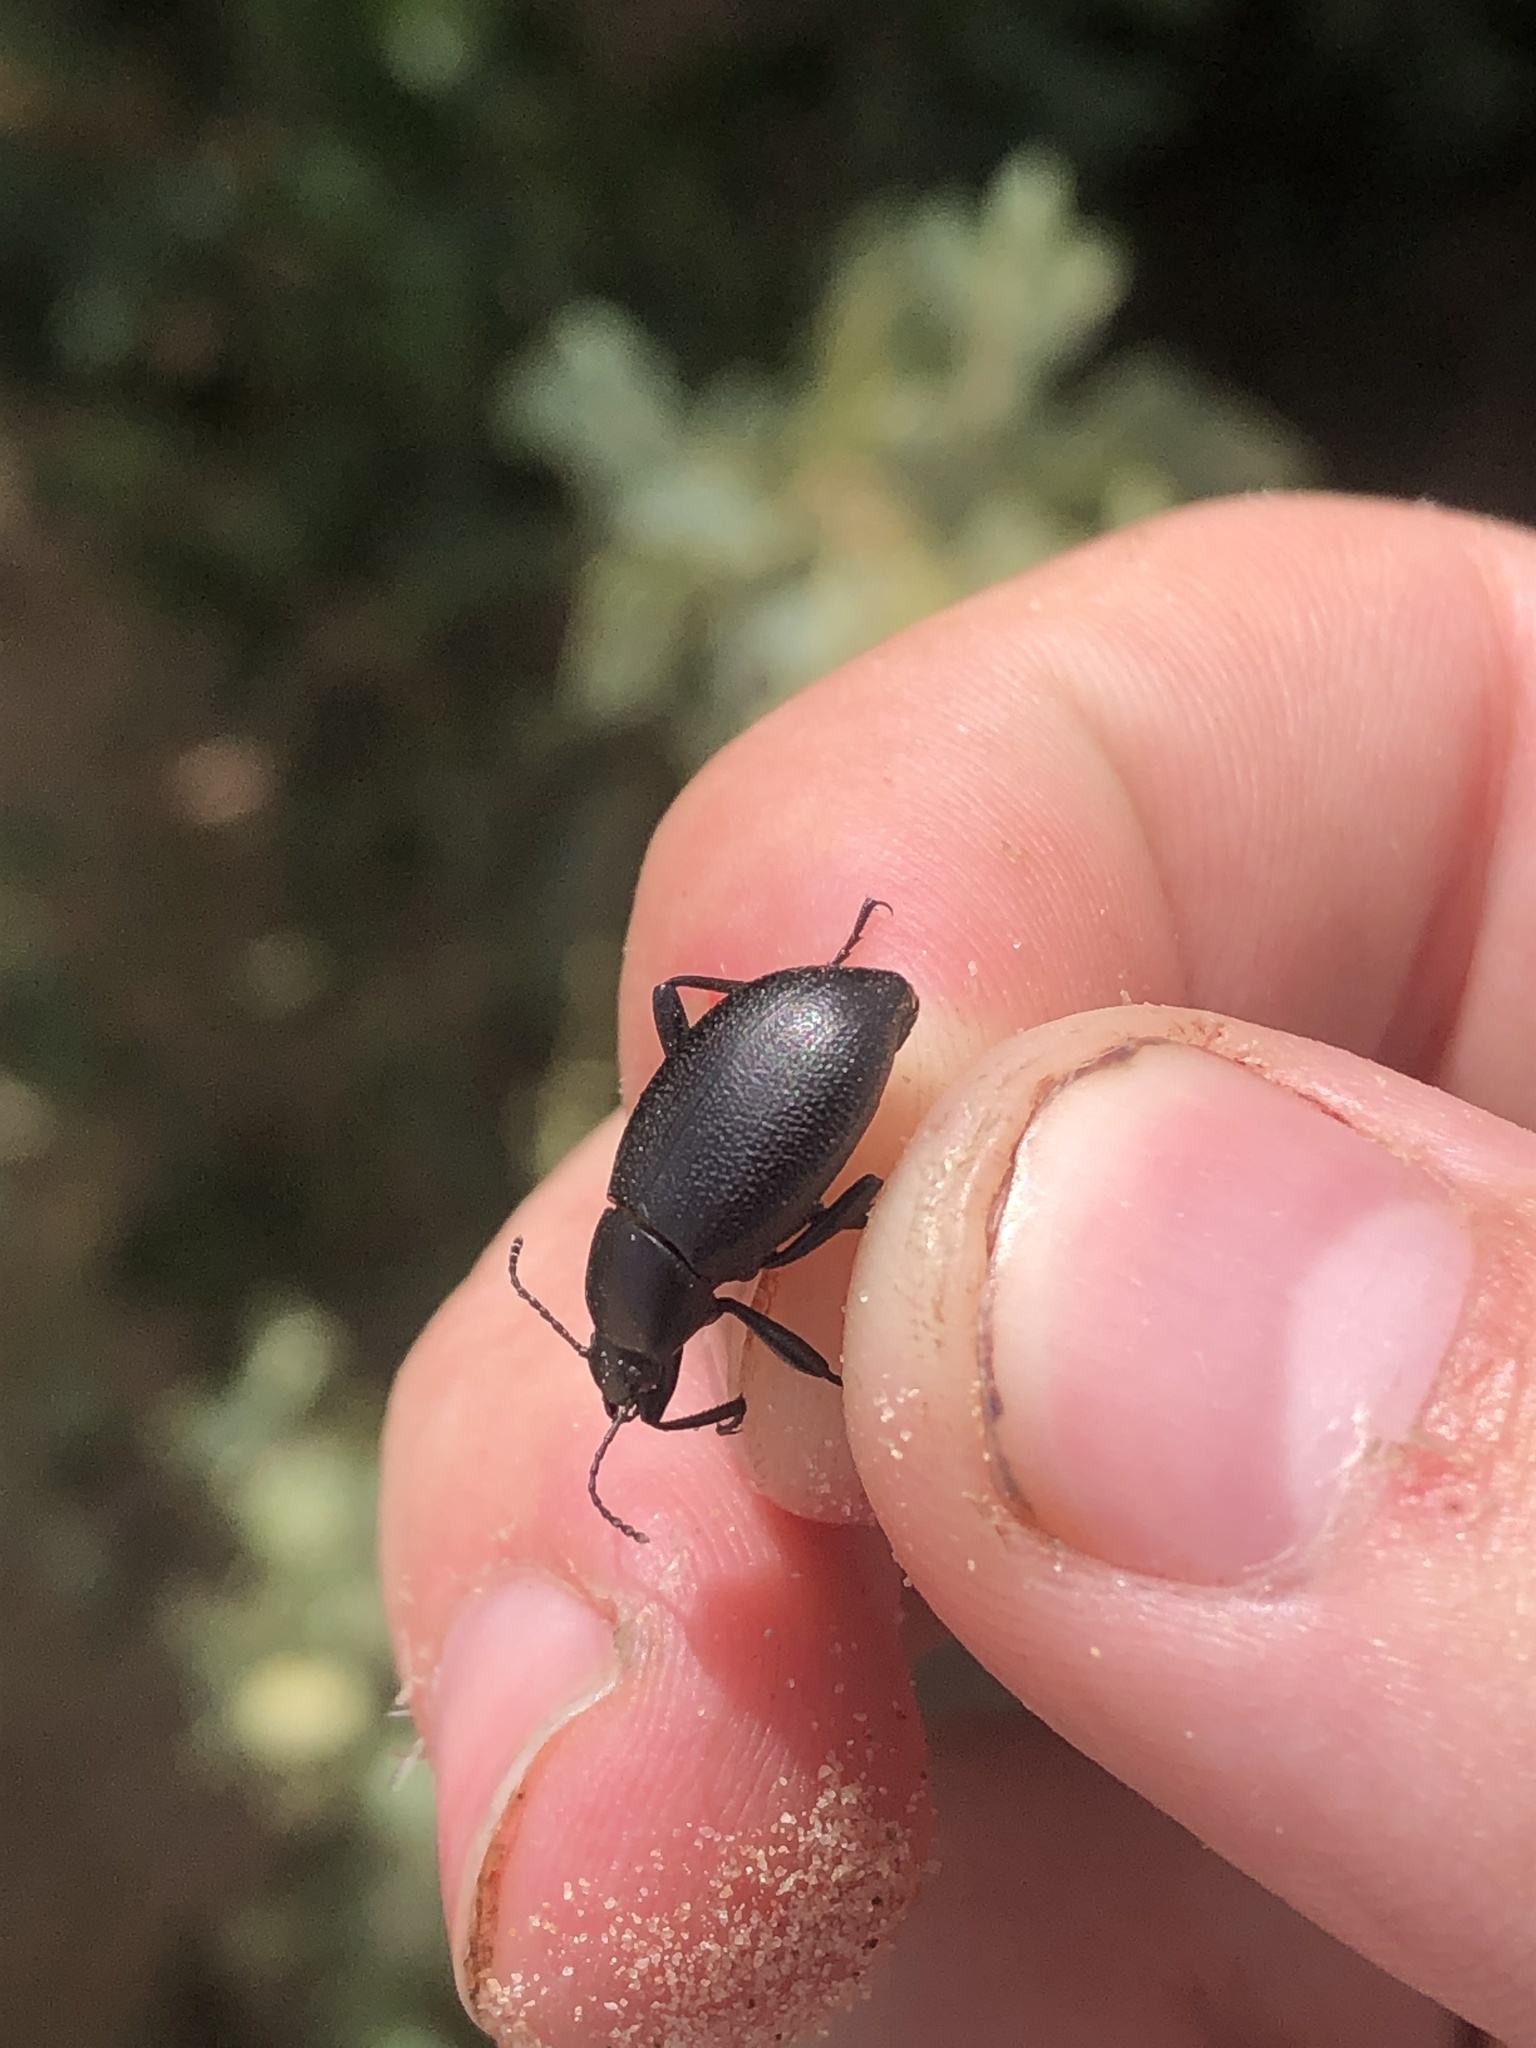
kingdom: Animalia
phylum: Arthropoda
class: Insecta
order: Coleoptera
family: Tenebrionidae
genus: Eleodes
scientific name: Eleodes extricata
